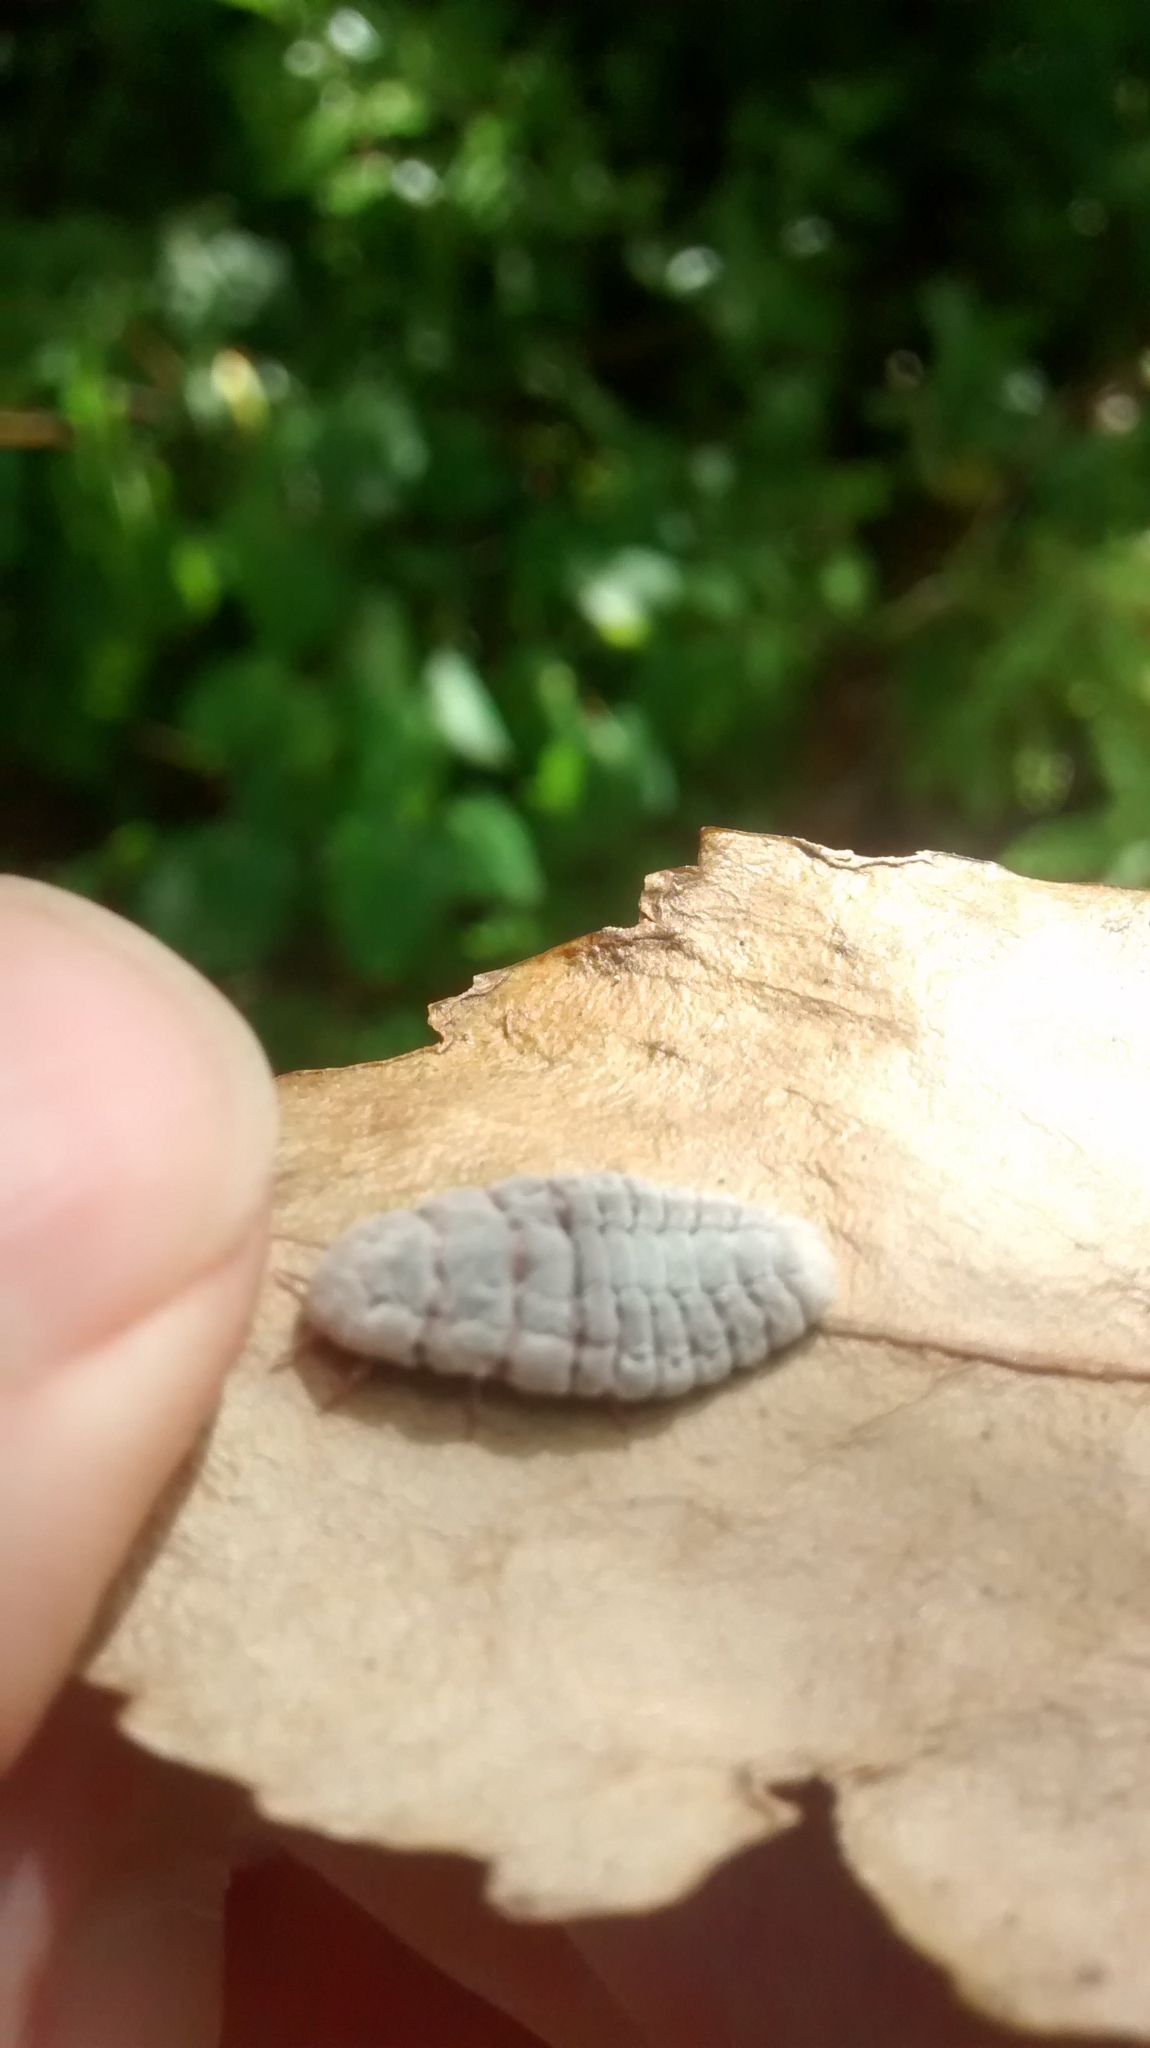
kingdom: Animalia
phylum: Arthropoda
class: Insecta
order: Hemiptera
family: Margarodidae
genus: Coelostomidia
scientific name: Coelostomidia zealandica
